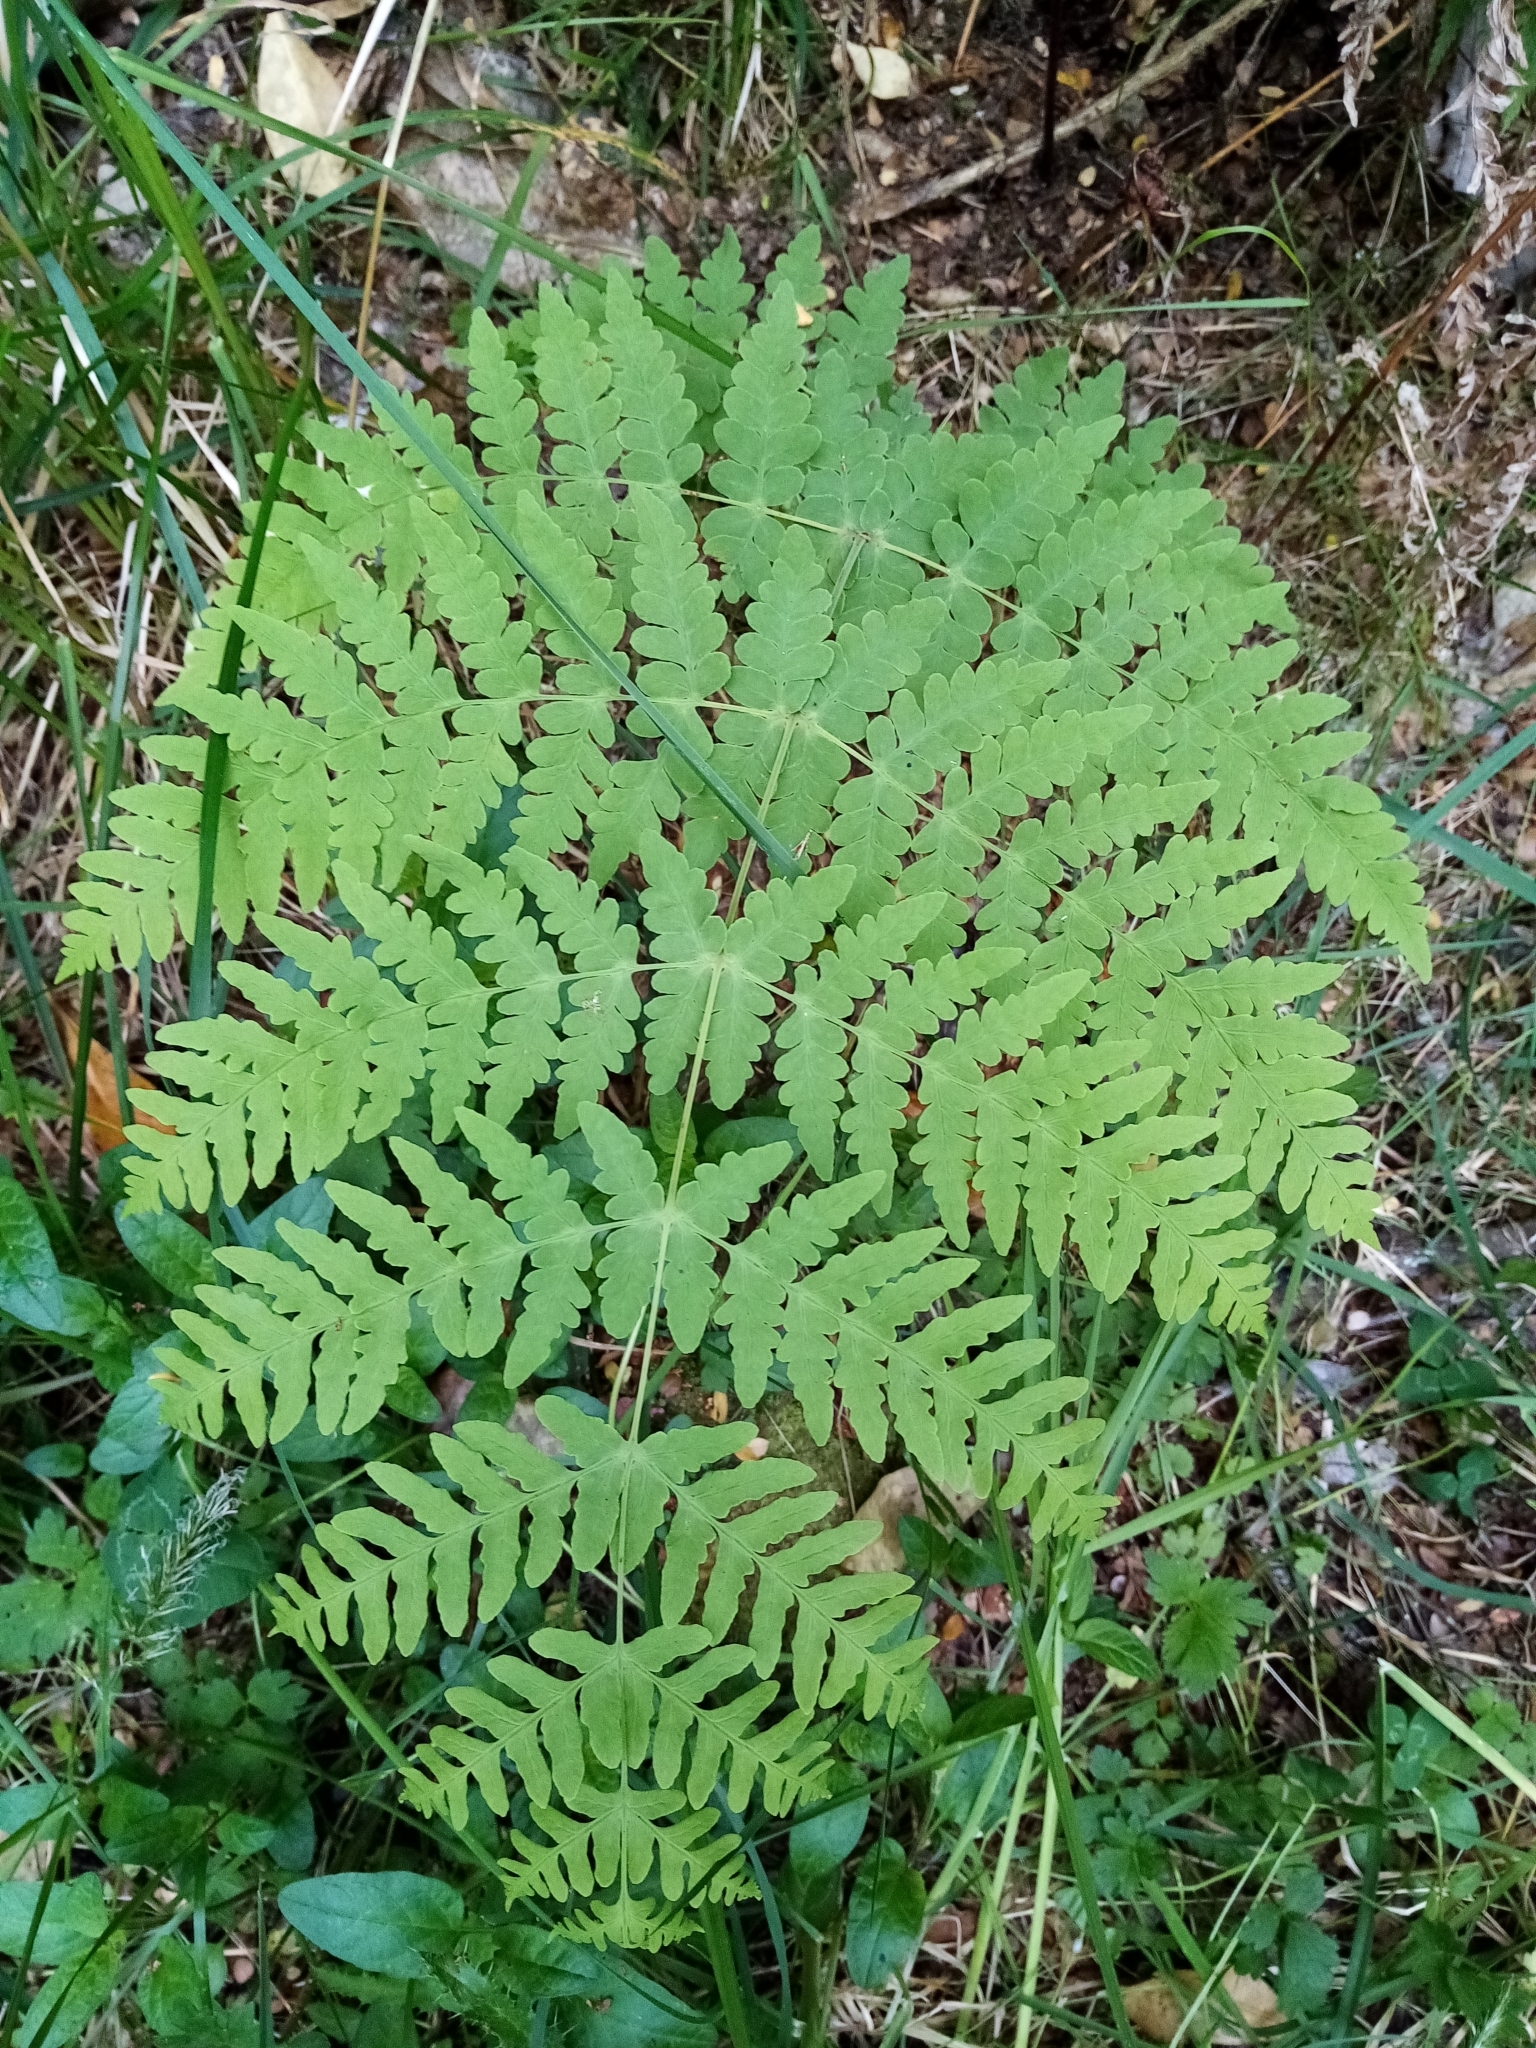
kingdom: Plantae
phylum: Tracheophyta
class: Polypodiopsida
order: Polypodiales
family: Dennstaedtiaceae
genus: Histiopteris
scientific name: Histiopteris incisa
